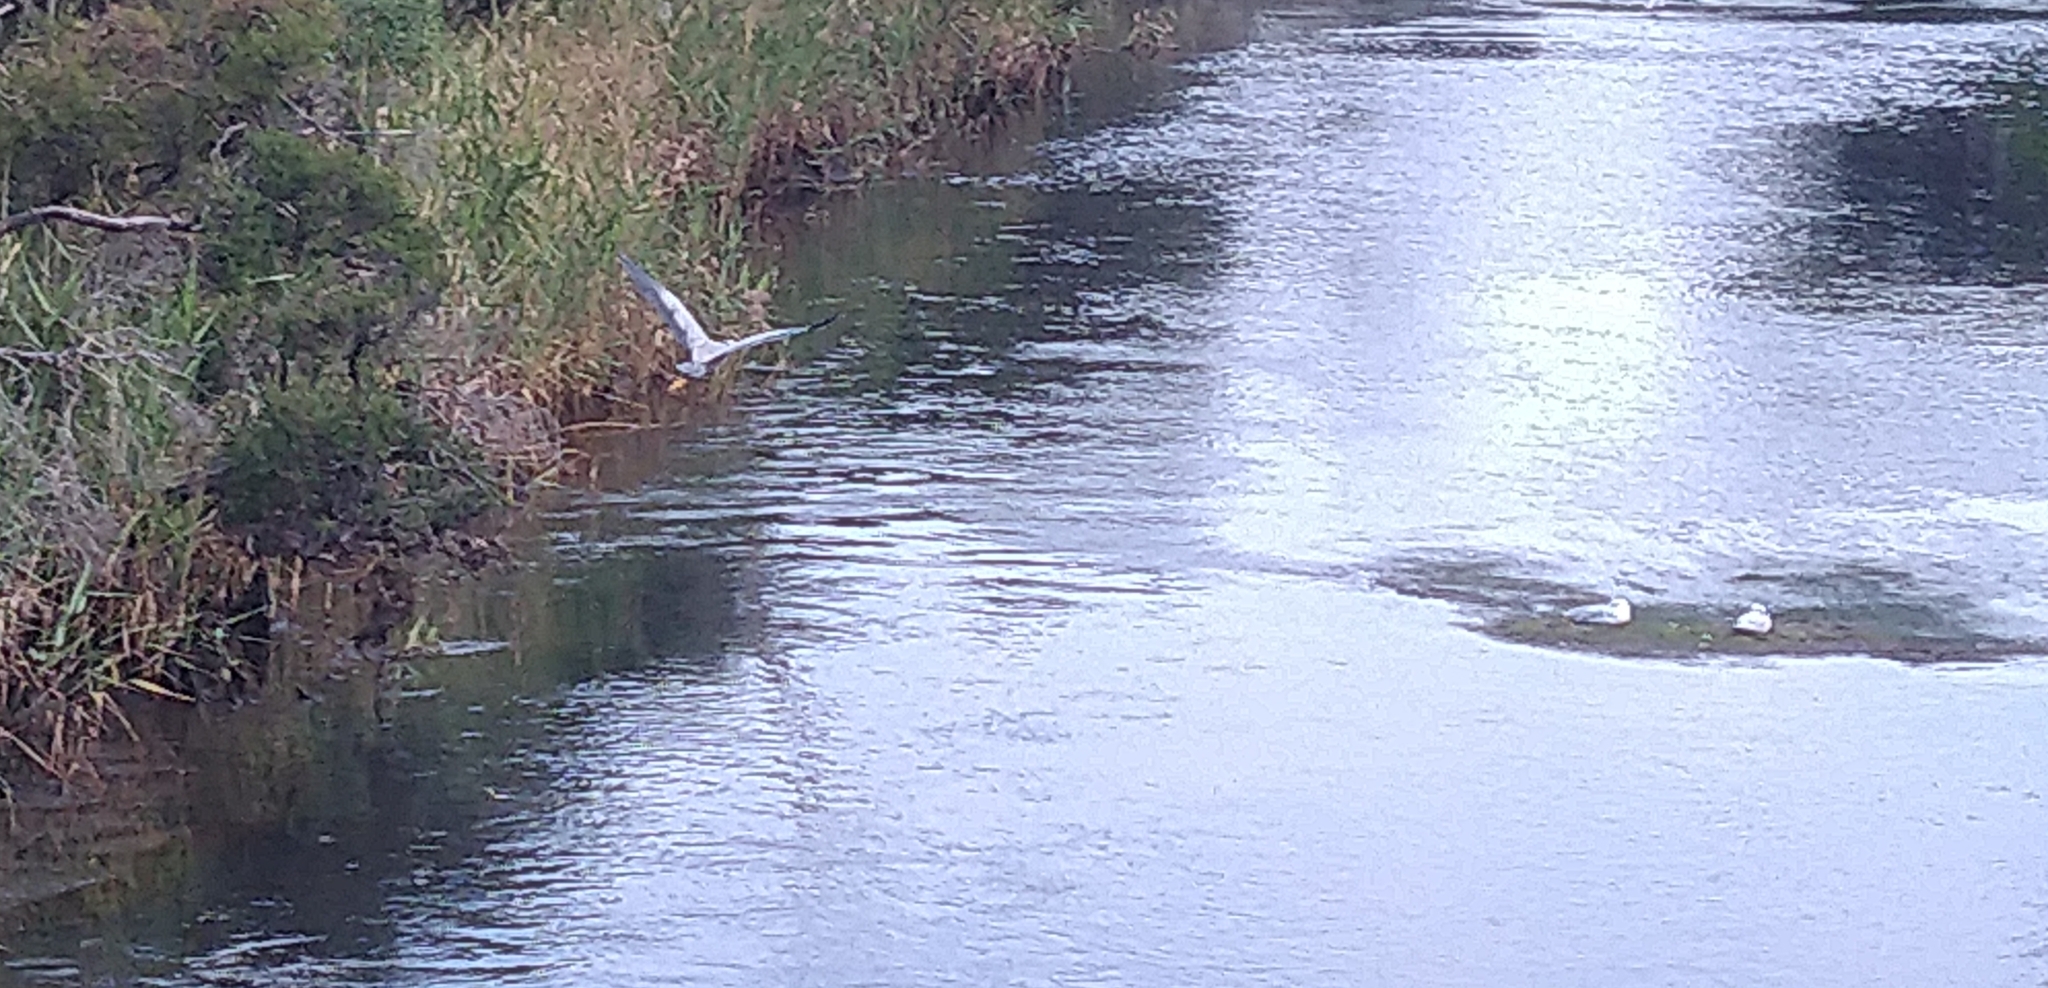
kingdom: Animalia
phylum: Chordata
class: Aves
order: Pelecaniformes
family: Ardeidae
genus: Egretta
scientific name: Egretta novaehollandiae
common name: White-faced heron
